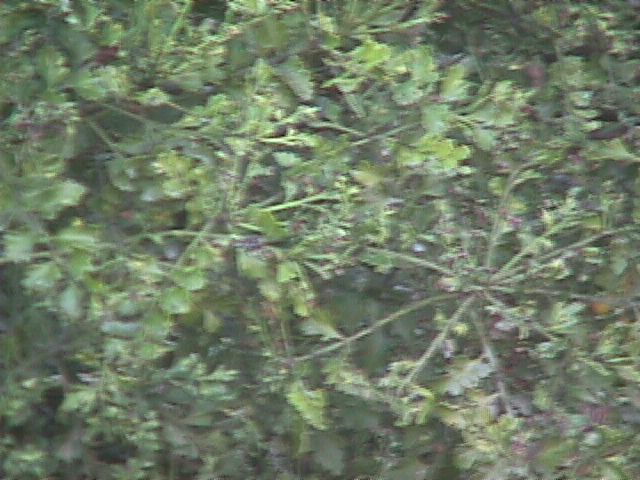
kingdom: Plantae
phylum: Tracheophyta
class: Pinopsida
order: Pinales
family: Phyllocladaceae
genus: Phyllocladus
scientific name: Phyllocladus trichomanoides
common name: Celery pine
